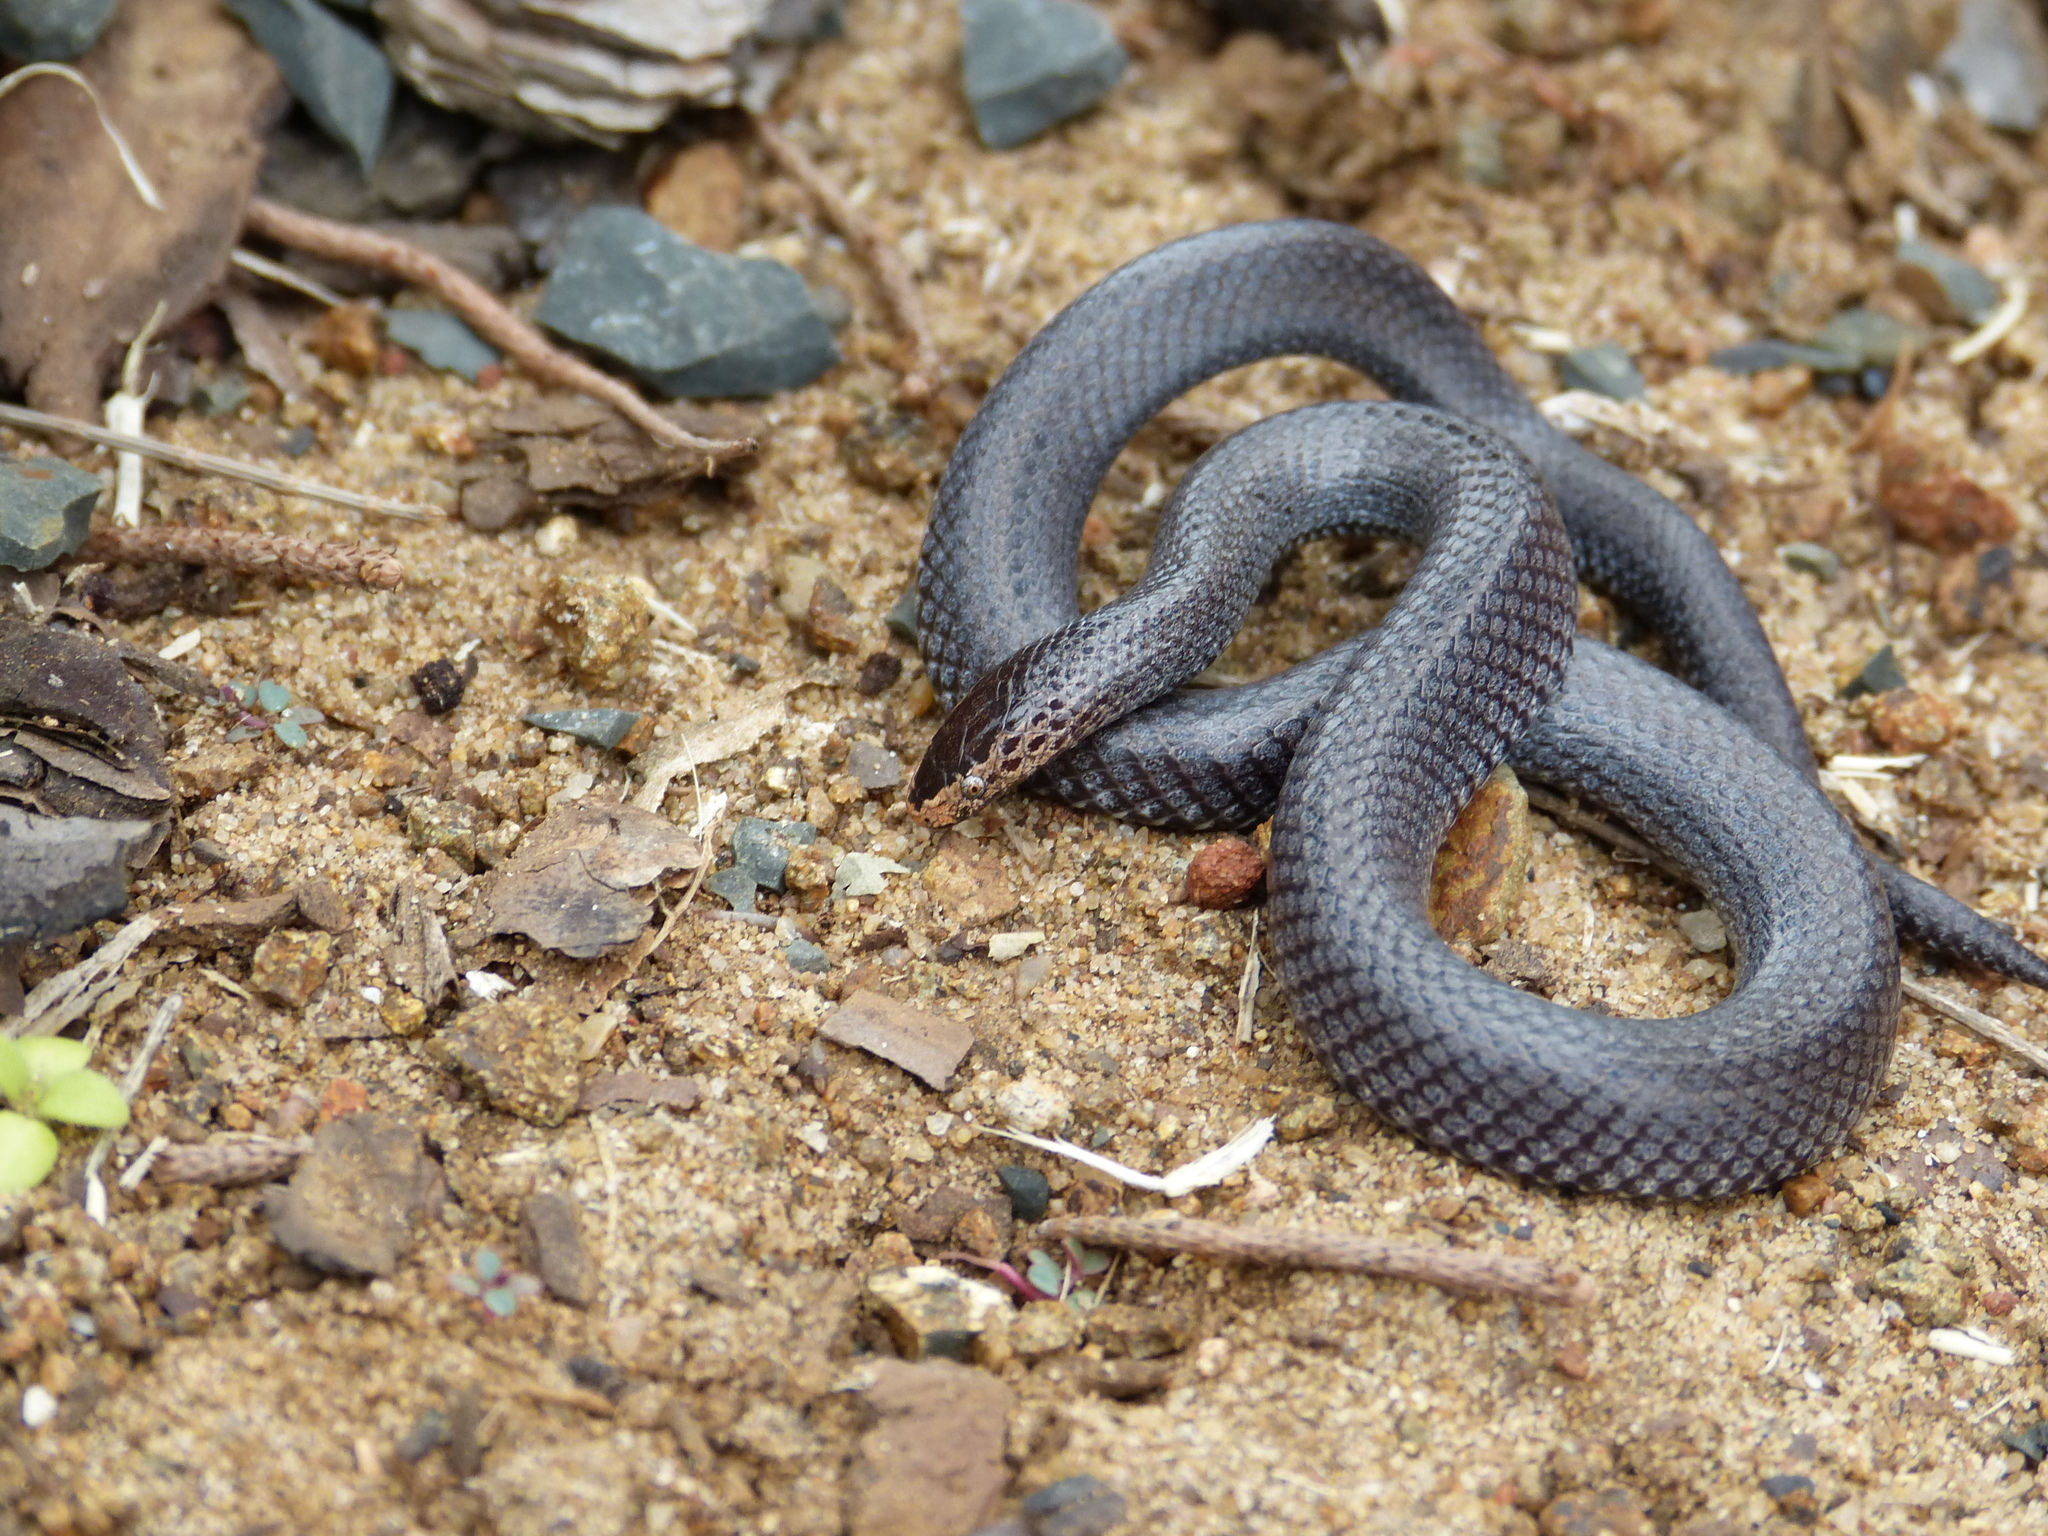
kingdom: Animalia
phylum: Chordata
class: Squamata
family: Lamprophiidae
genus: Lycophidion
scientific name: Lycophidion pygmaeum
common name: Pygmy wolf snake
